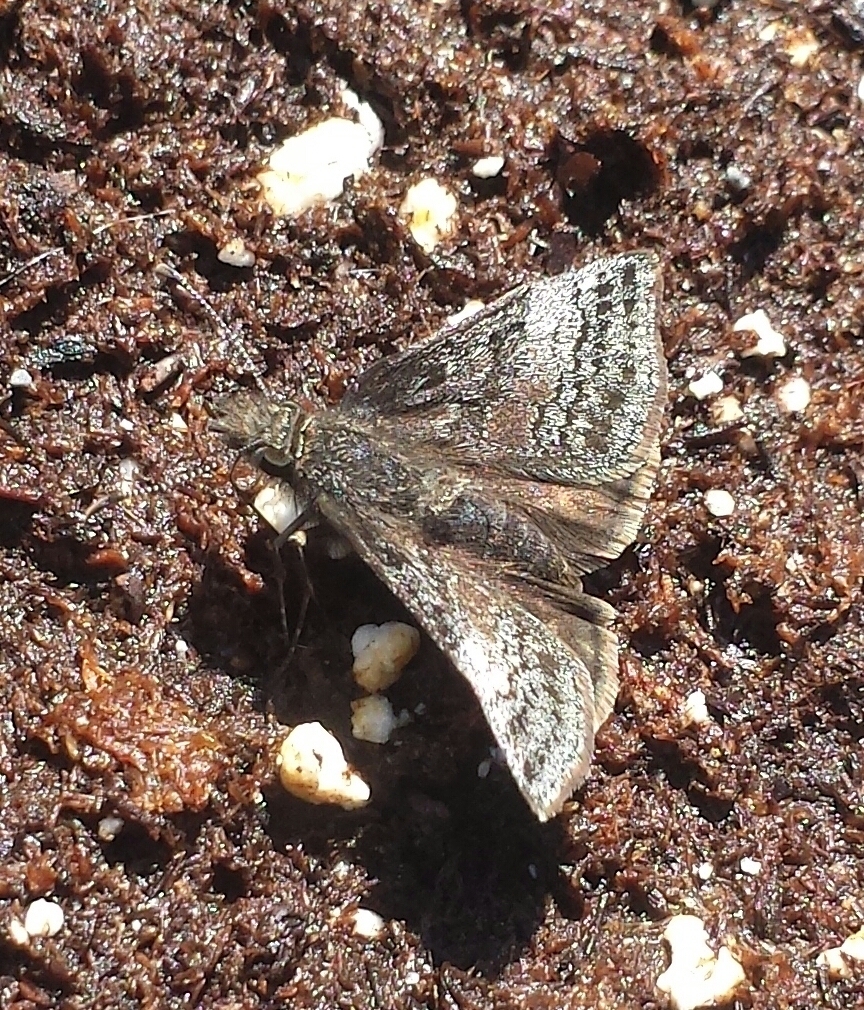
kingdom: Animalia
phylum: Arthropoda
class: Insecta
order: Lepidoptera
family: Hesperiidae
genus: Erynnis
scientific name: Erynnis icelus
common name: Dreamy duskywing
